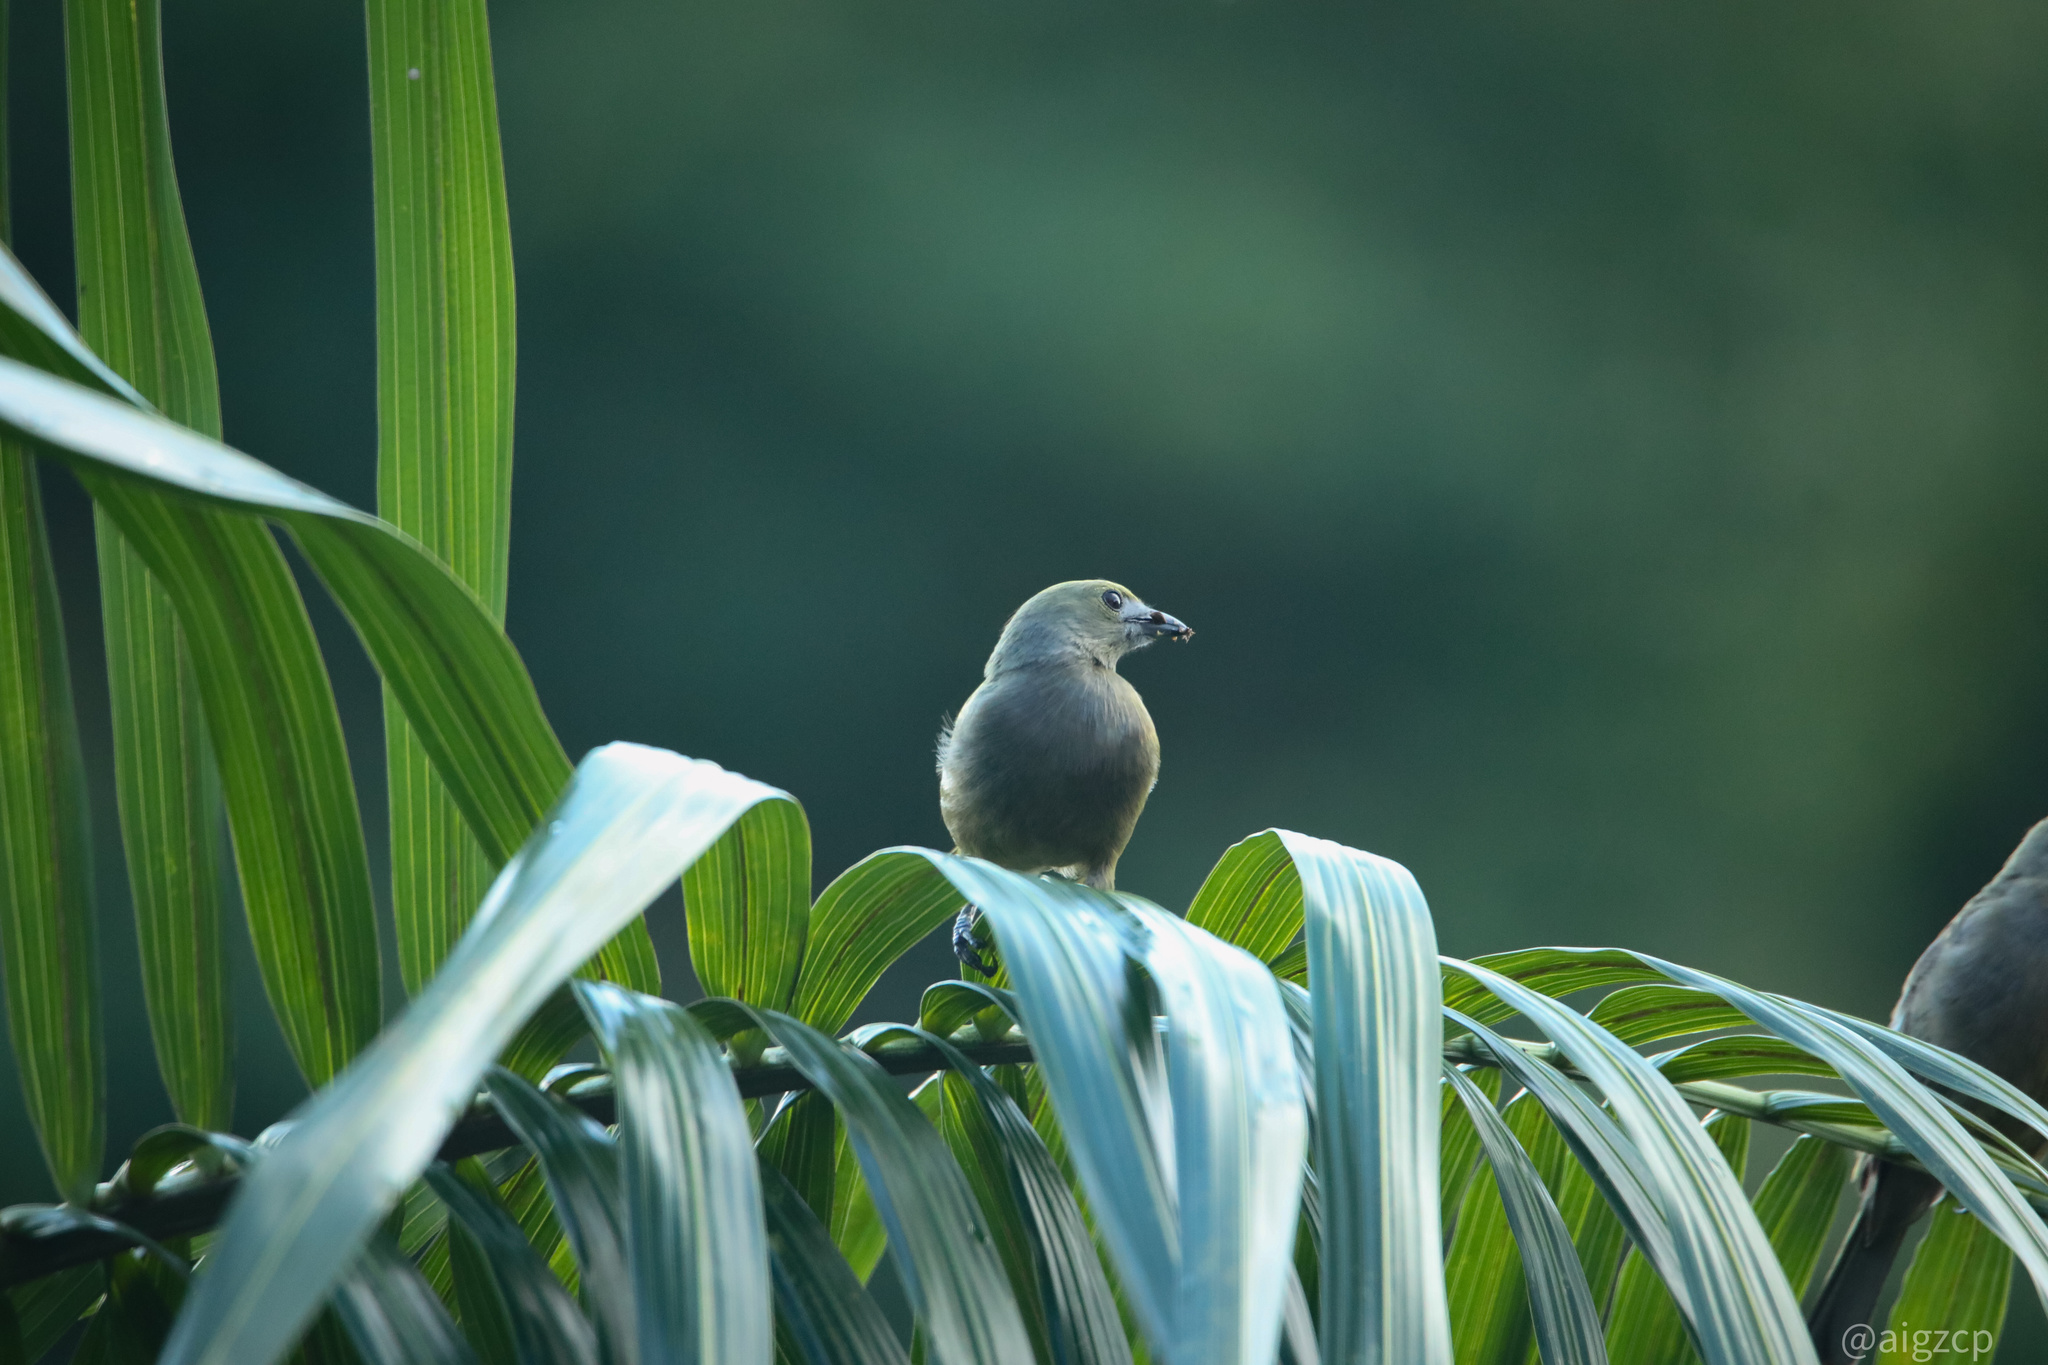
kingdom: Animalia
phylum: Chordata
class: Aves
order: Passeriformes
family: Thraupidae
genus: Thraupis
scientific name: Thraupis palmarum
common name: Palm tanager
